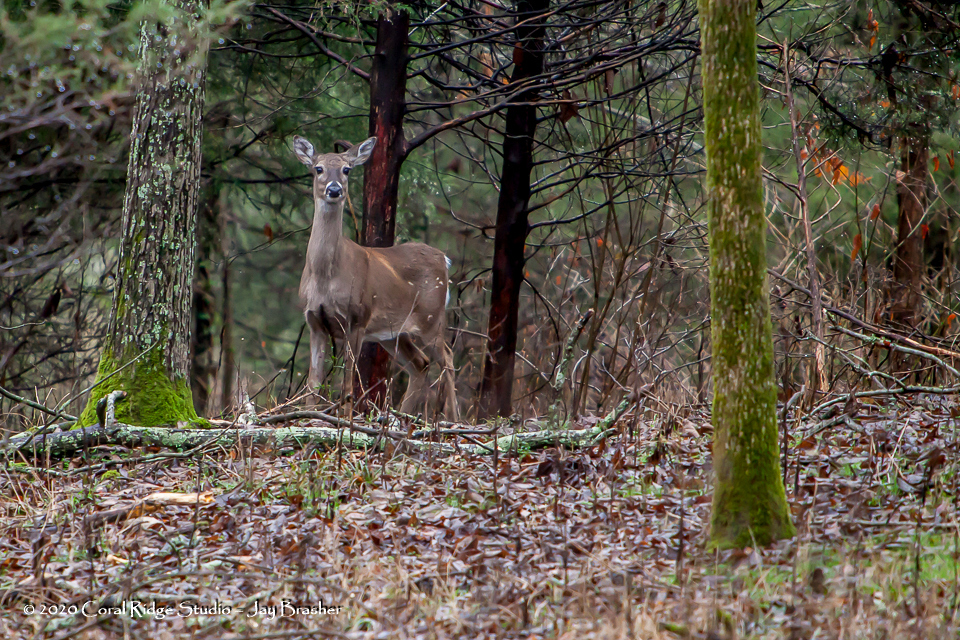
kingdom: Animalia
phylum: Chordata
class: Mammalia
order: Artiodactyla
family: Cervidae
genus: Odocoileus
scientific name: Odocoileus virginianus
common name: White-tailed deer
